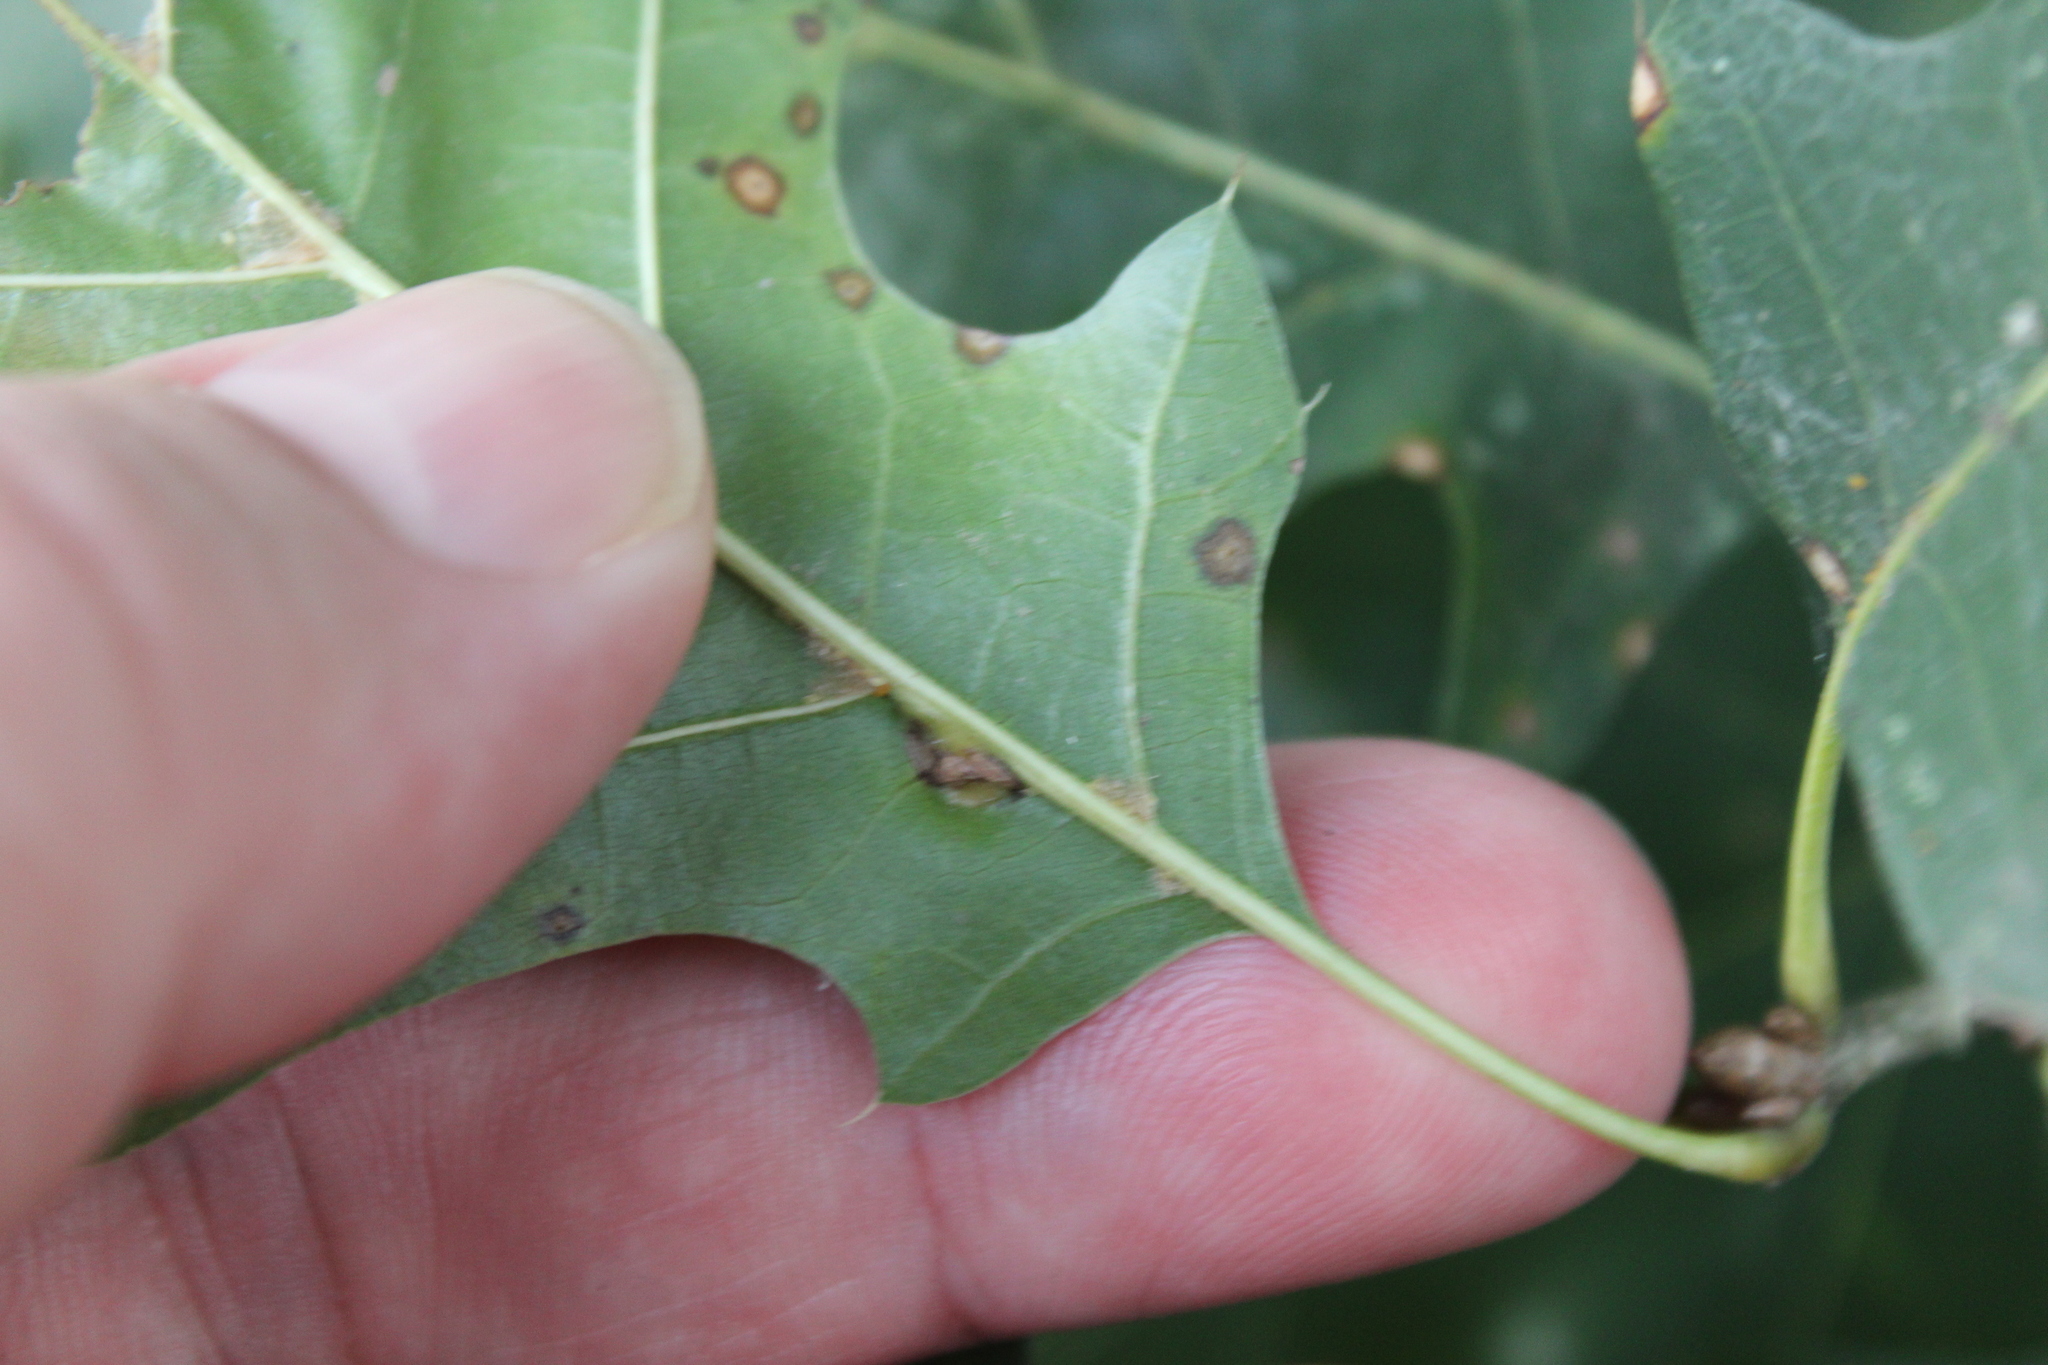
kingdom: Animalia
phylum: Arthropoda
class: Insecta
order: Diptera
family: Cecidomyiidae
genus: Polystepha
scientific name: Polystepha pilulae
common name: Oak leaf gall midge
